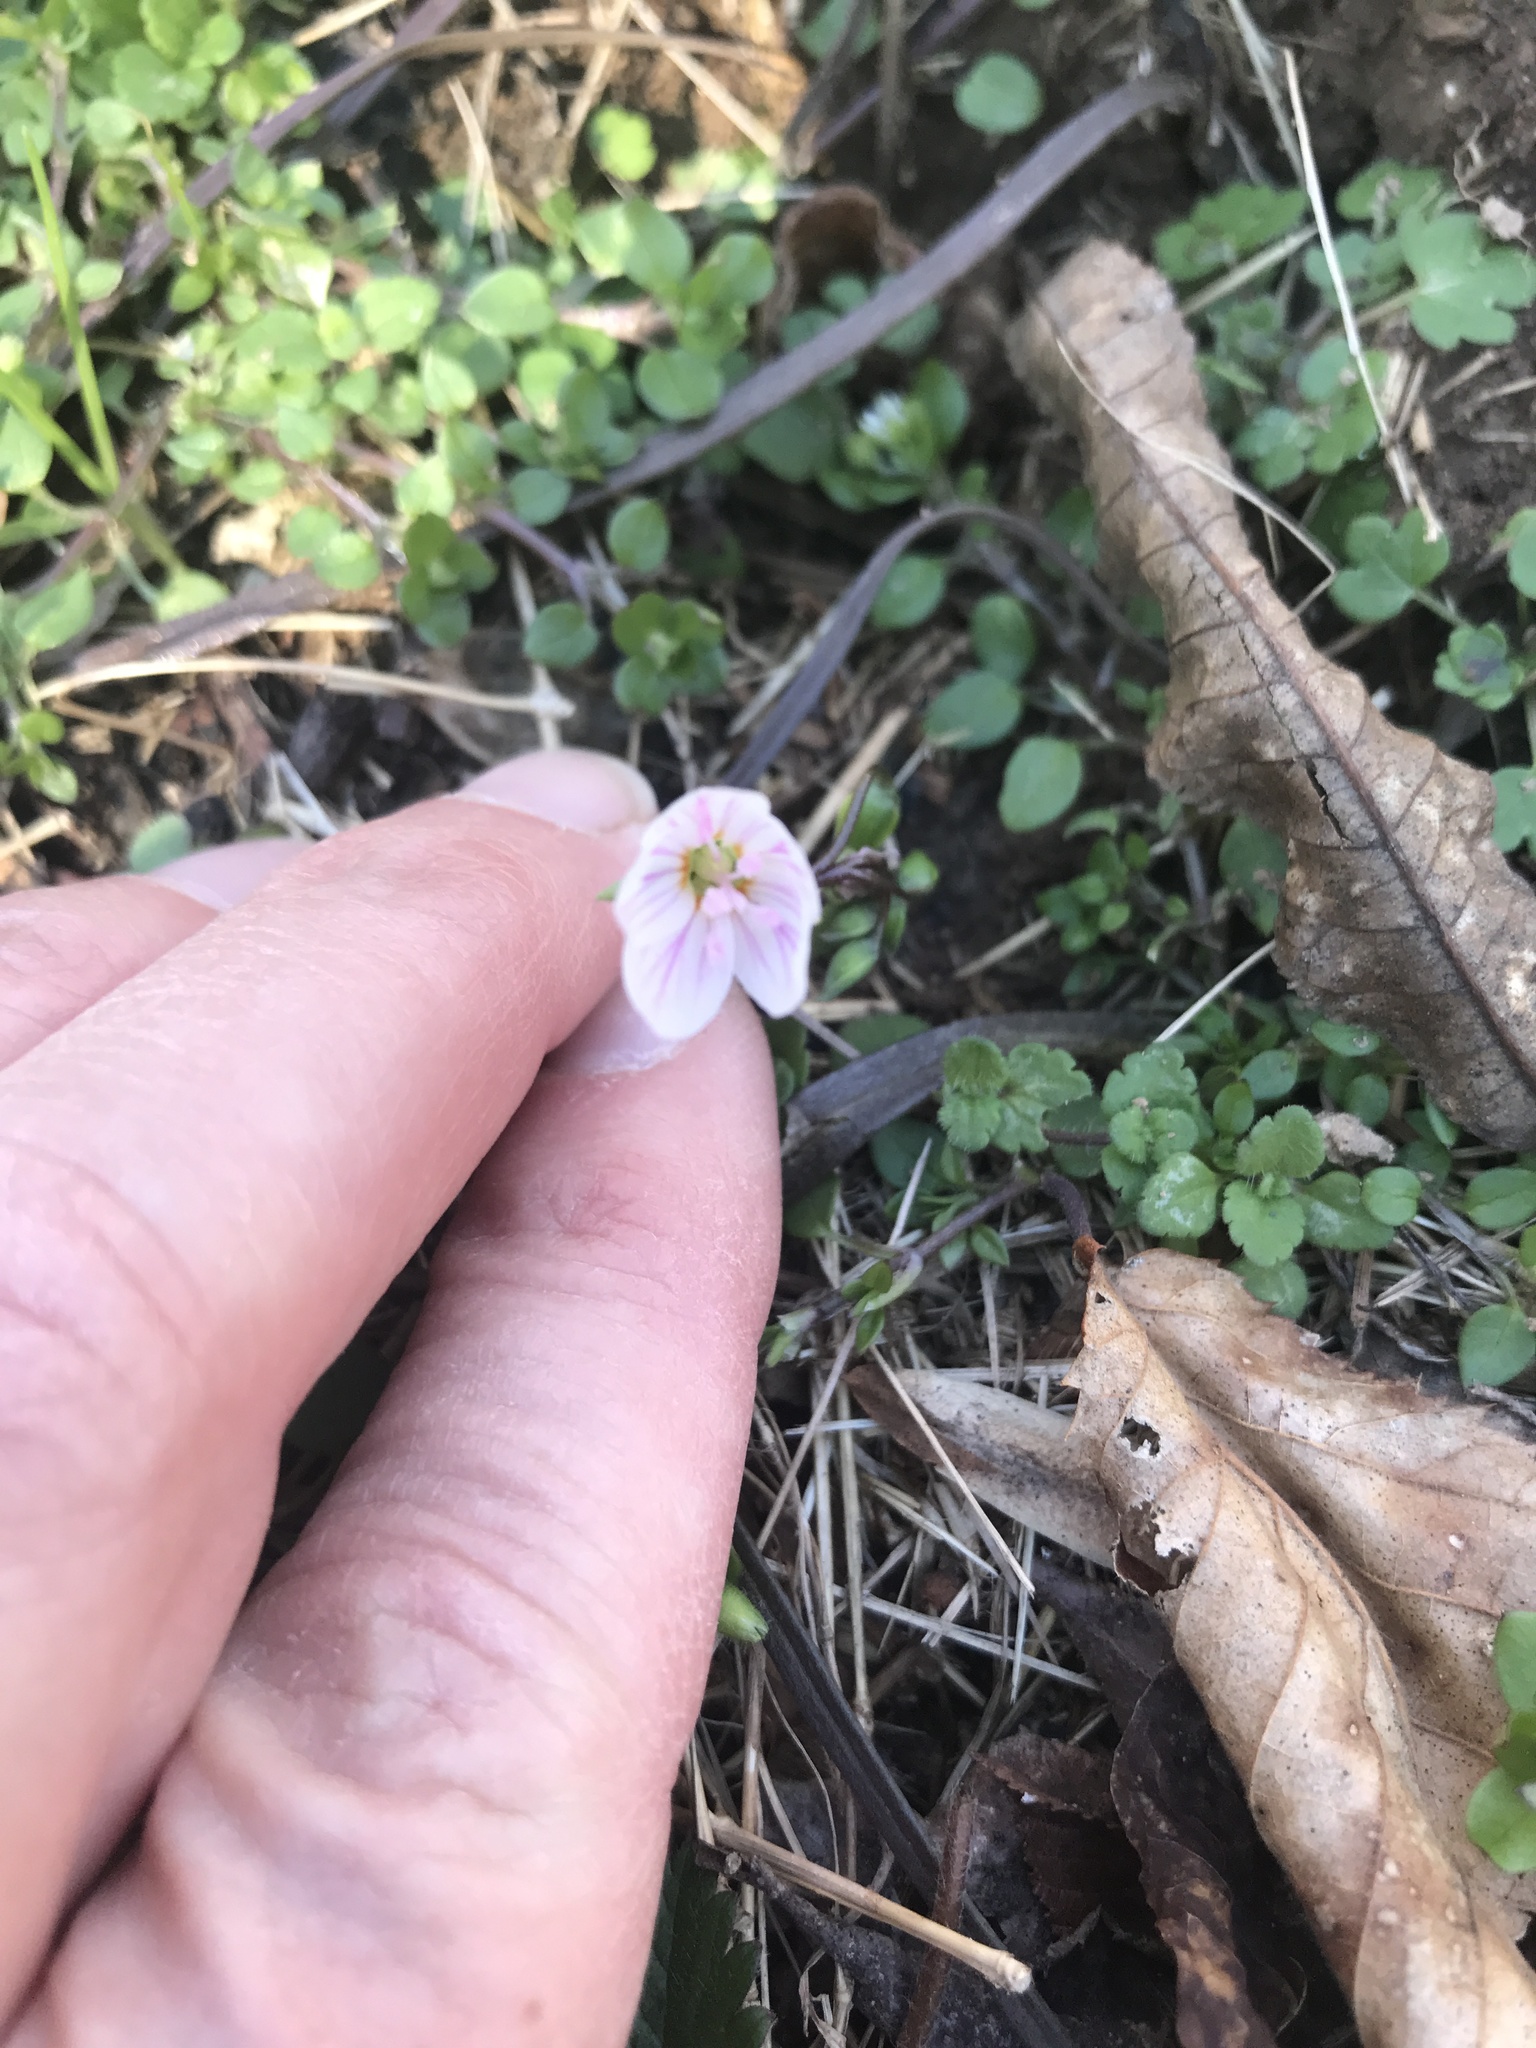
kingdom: Plantae
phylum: Tracheophyta
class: Magnoliopsida
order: Caryophyllales
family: Montiaceae
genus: Claytonia
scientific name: Claytonia virginica
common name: Virginia springbeauty
